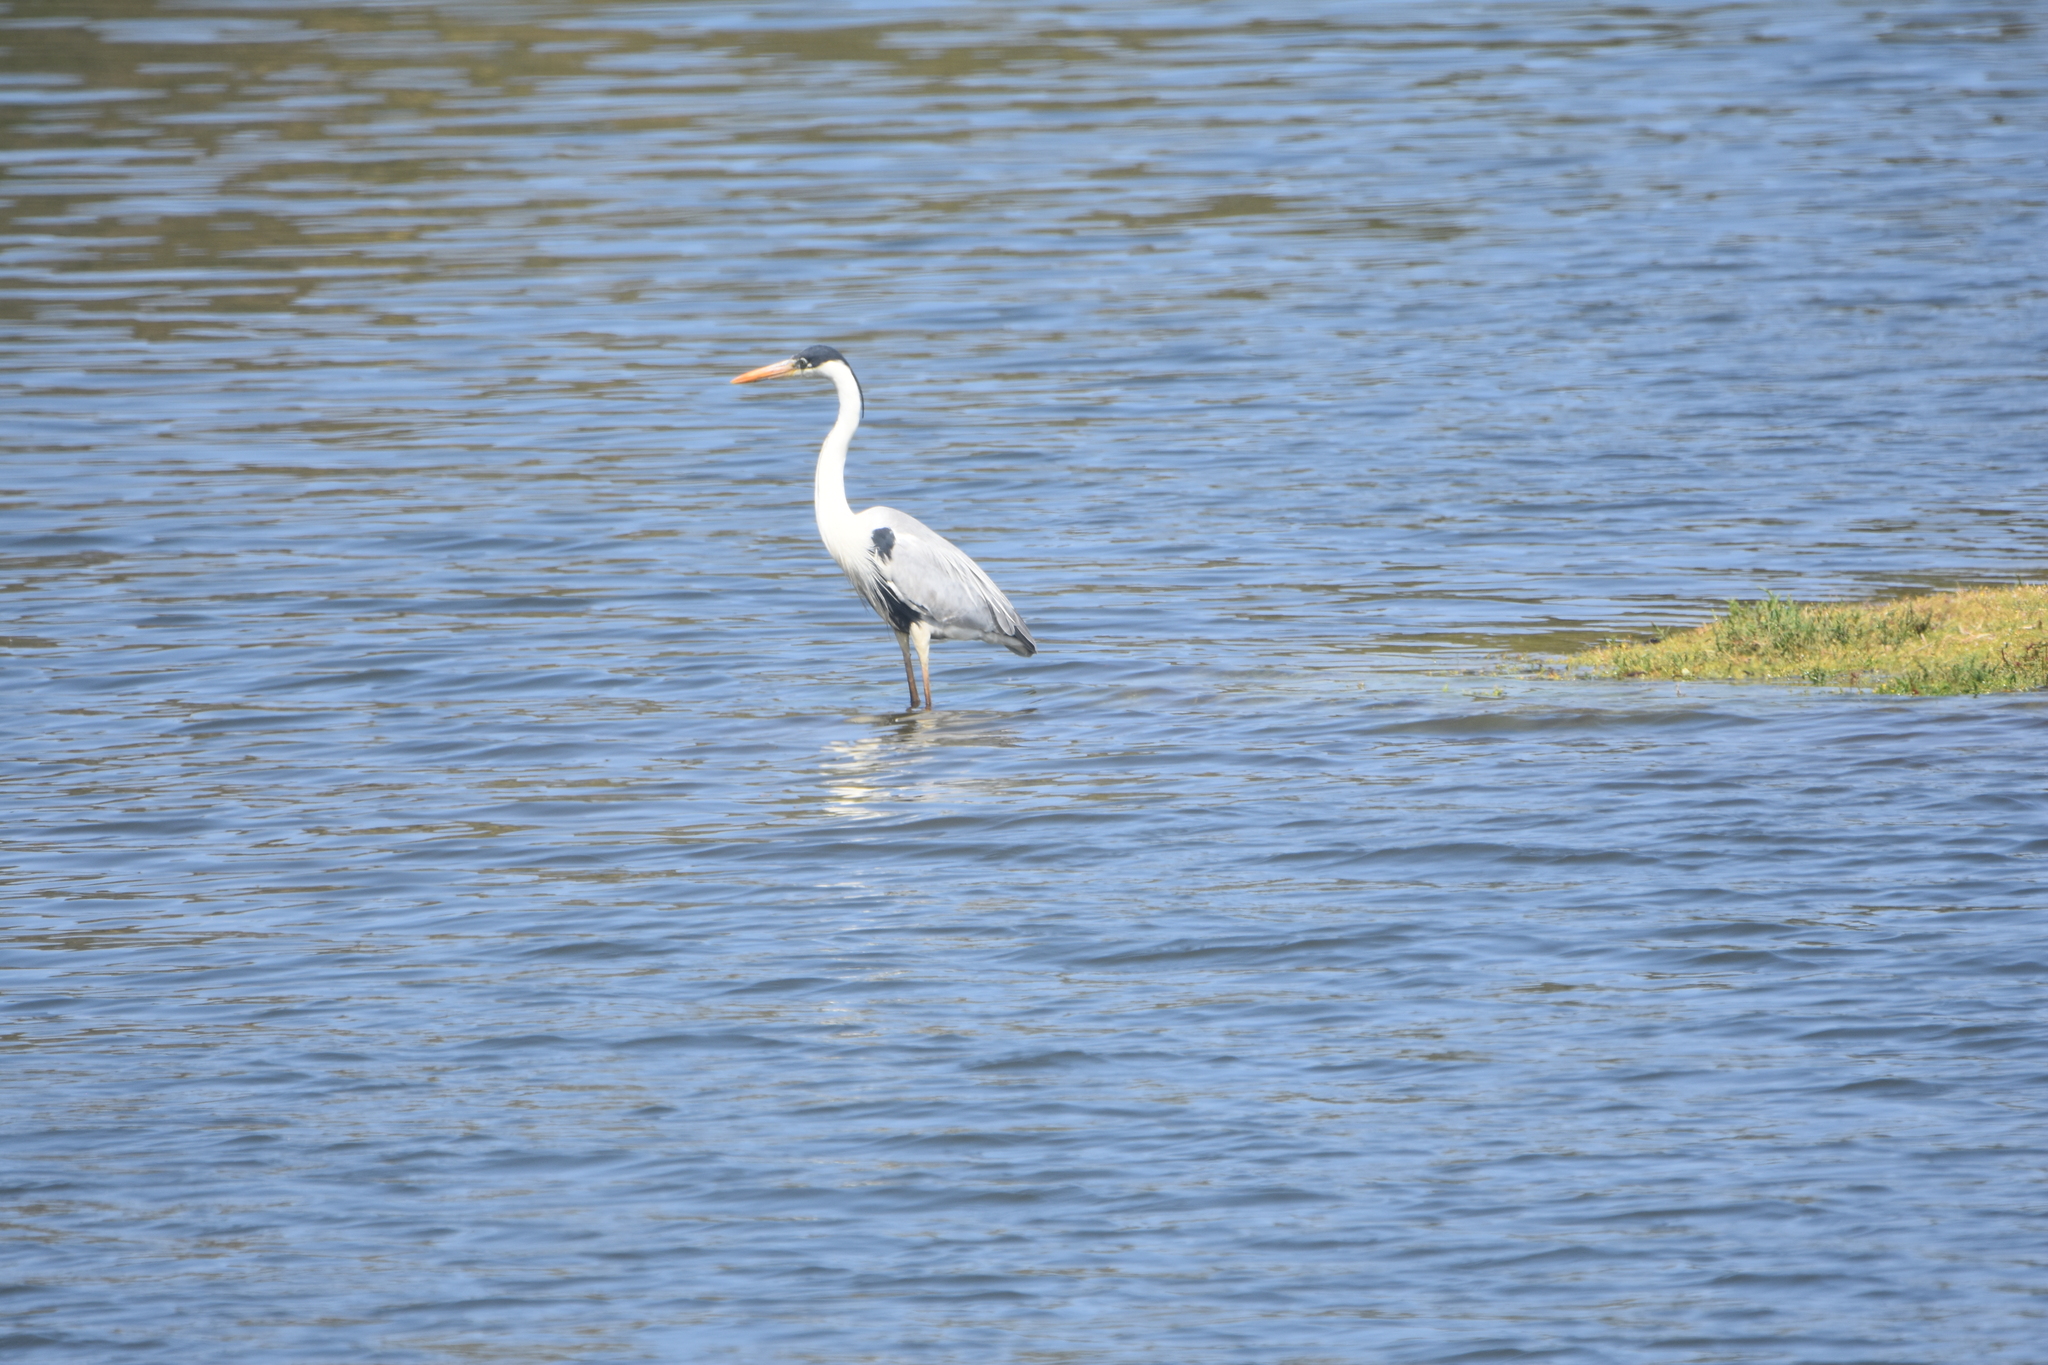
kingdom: Animalia
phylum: Chordata
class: Aves
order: Pelecaniformes
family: Ardeidae
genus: Ardea
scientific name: Ardea cocoi
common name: Cocoi heron
